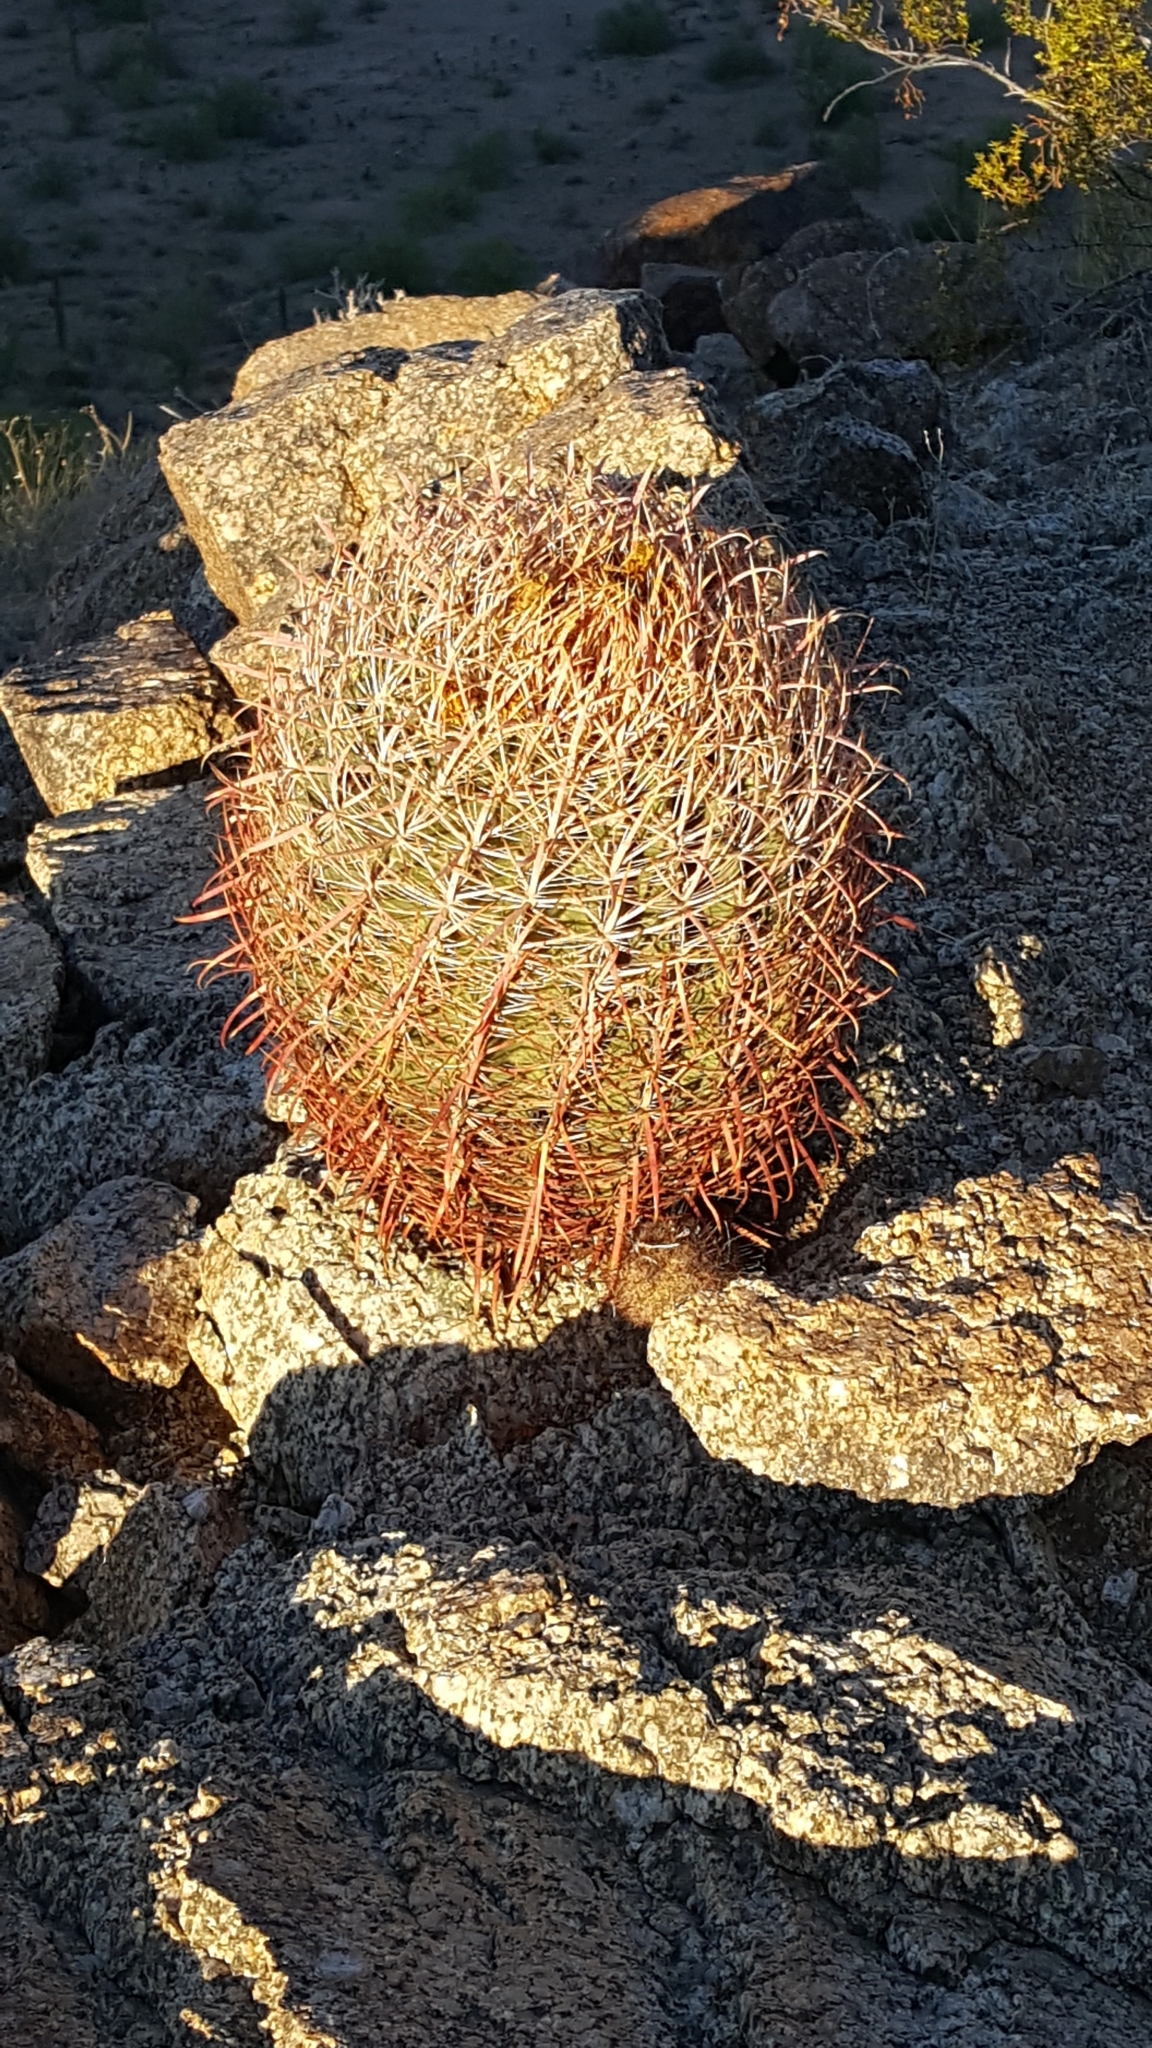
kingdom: Plantae
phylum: Tracheophyta
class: Magnoliopsida
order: Caryophyllales
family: Cactaceae
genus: Ferocactus
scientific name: Ferocactus wislizeni
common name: Candy barrel cactus
